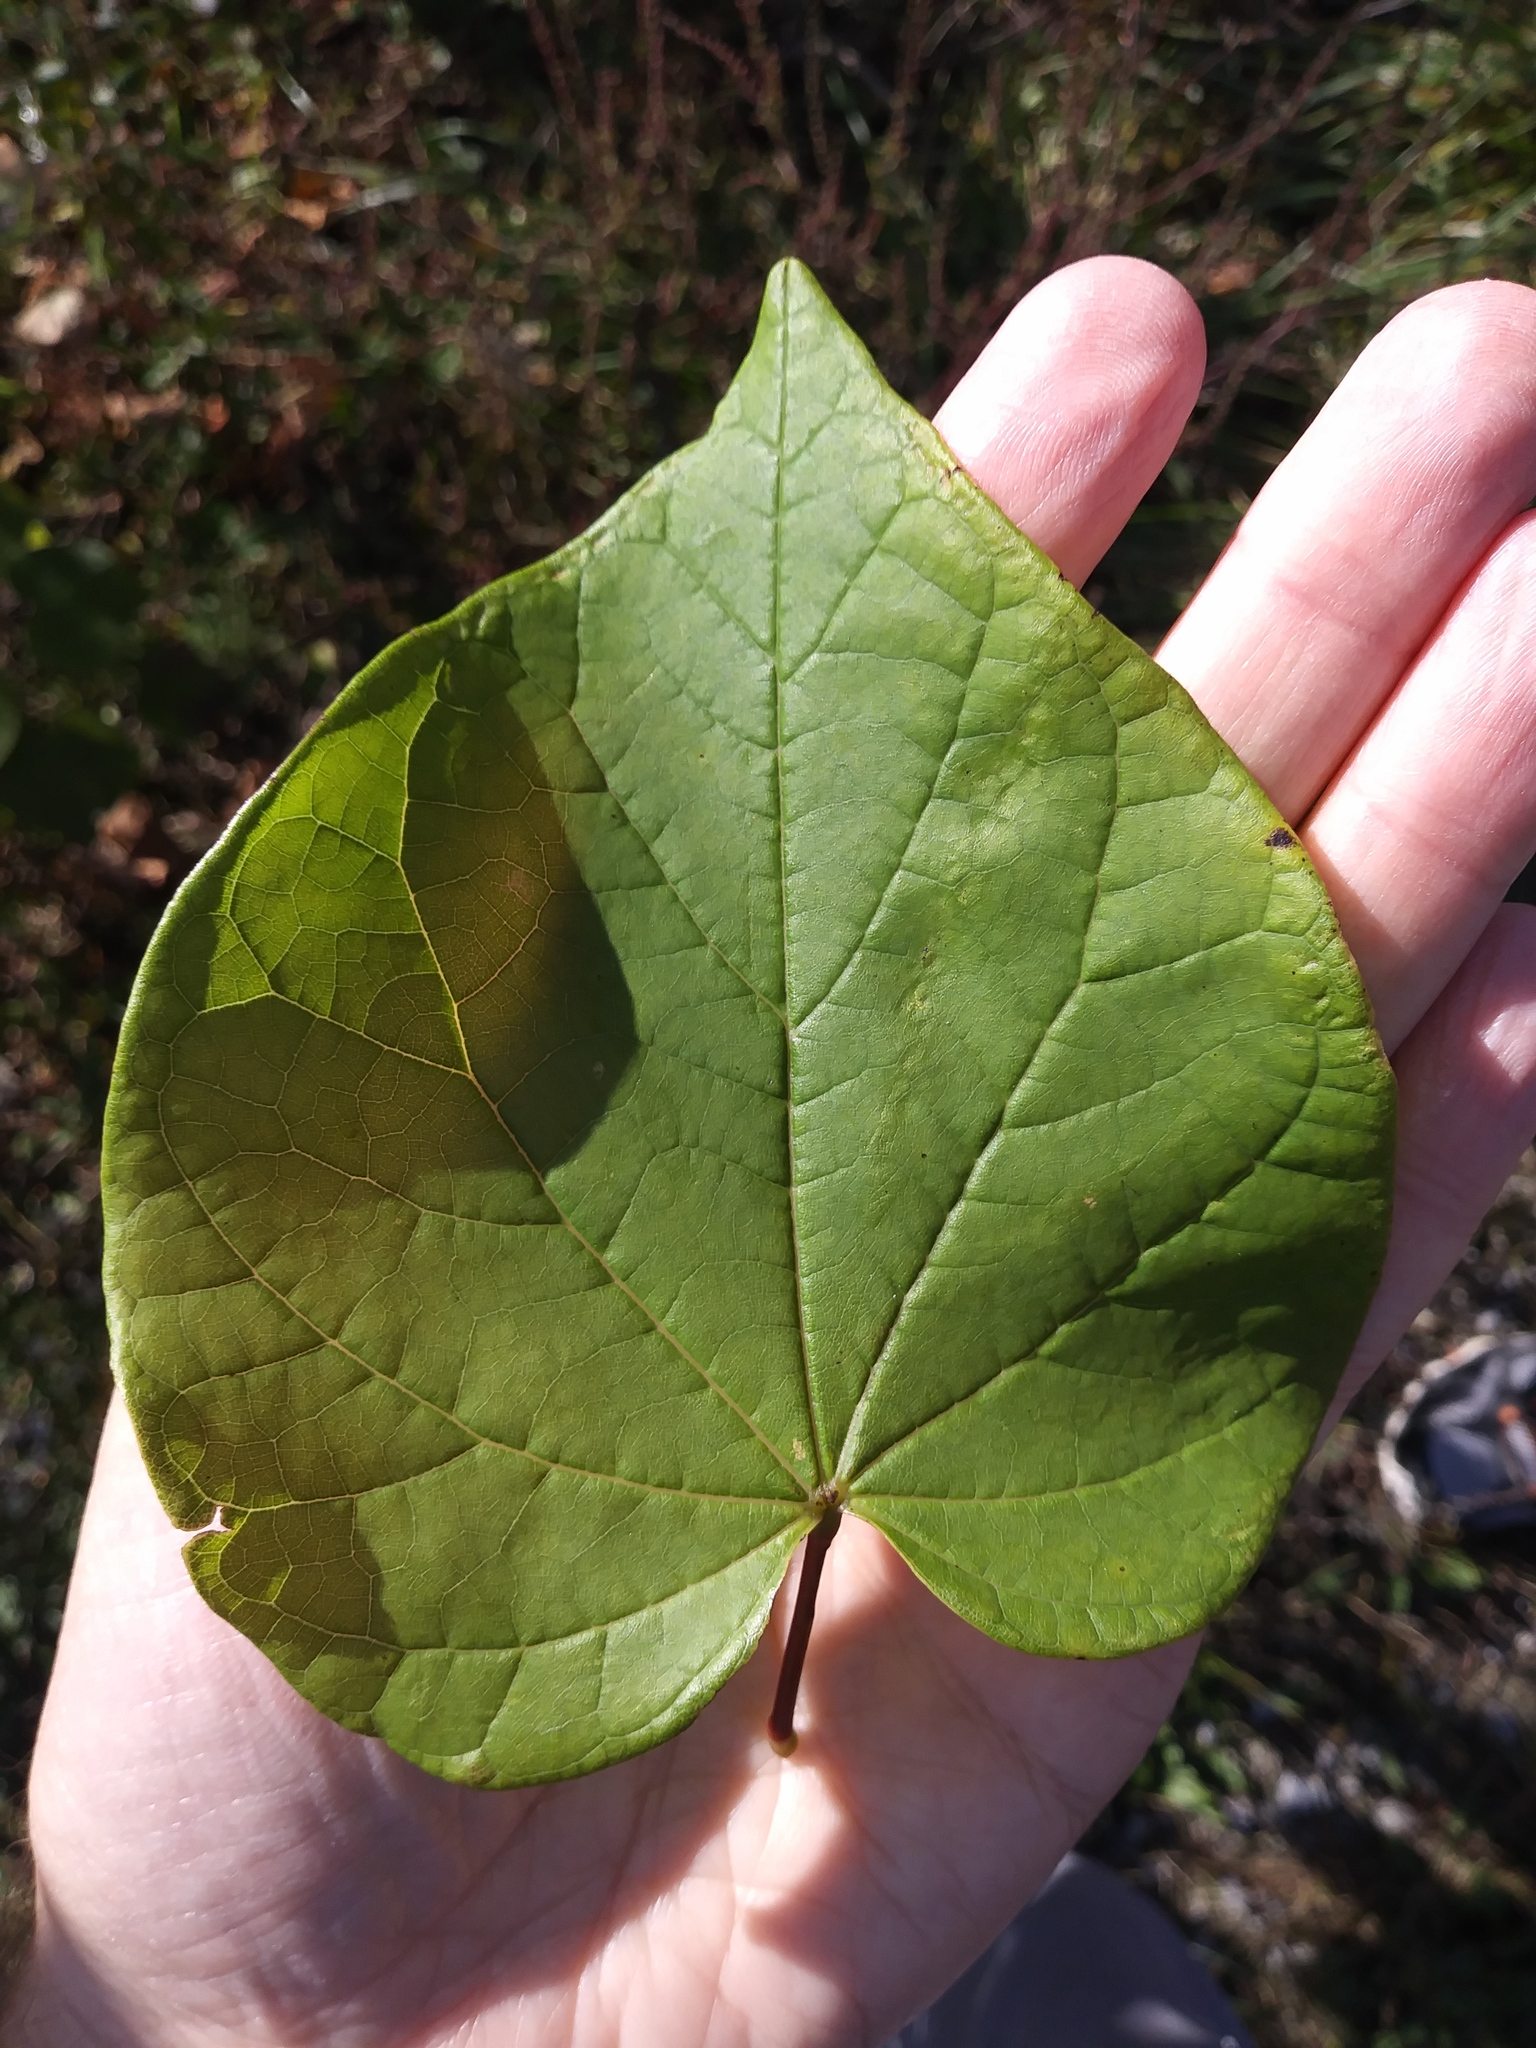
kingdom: Plantae
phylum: Tracheophyta
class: Magnoliopsida
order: Fabales
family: Fabaceae
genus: Cercis
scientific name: Cercis canadensis
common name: Eastern redbud
